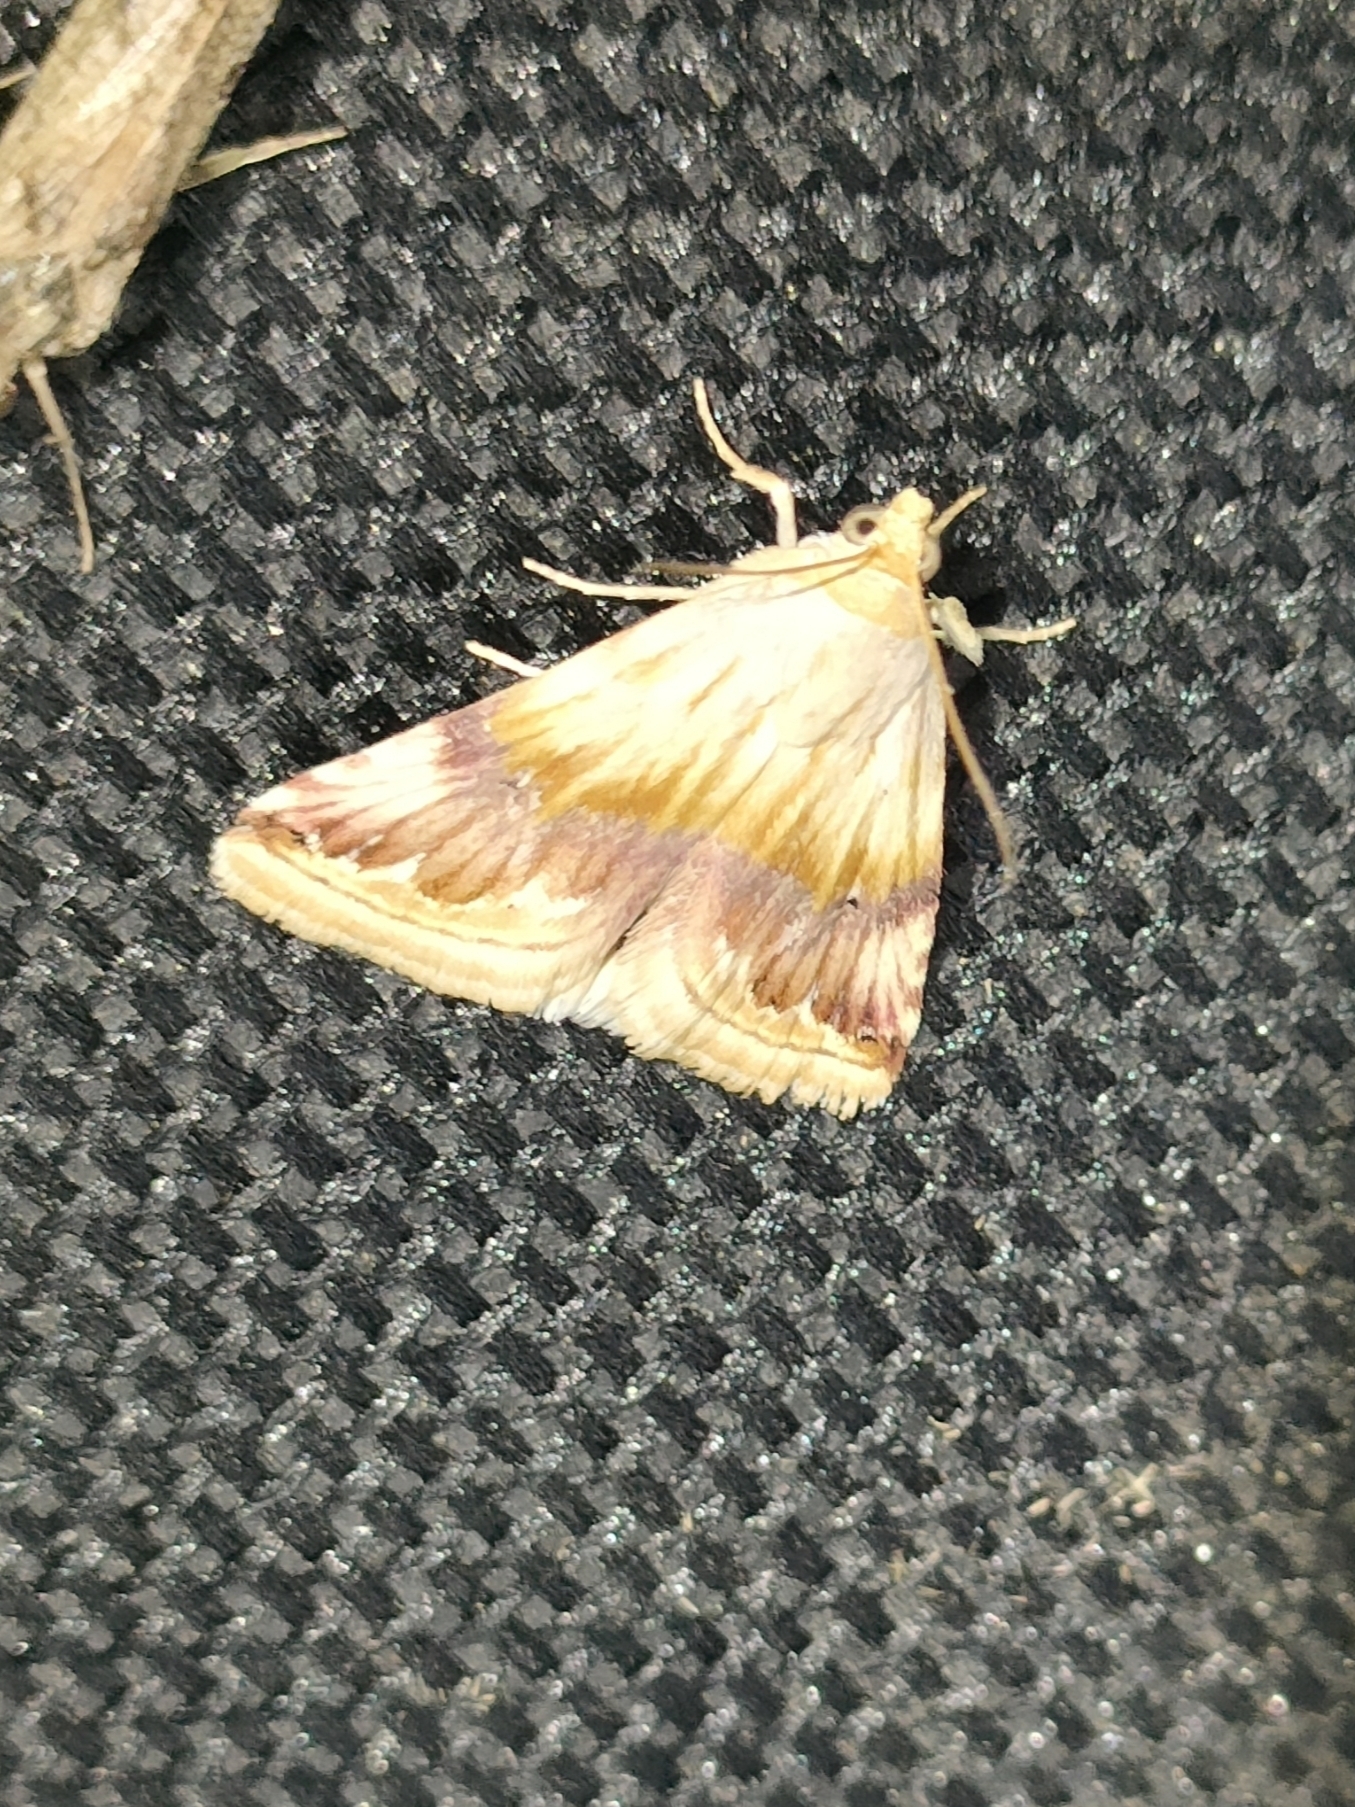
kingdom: Animalia
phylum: Arthropoda
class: Insecta
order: Lepidoptera
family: Noctuidae
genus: Eublemma
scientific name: Eublemma ostrina
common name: Purple marbled
